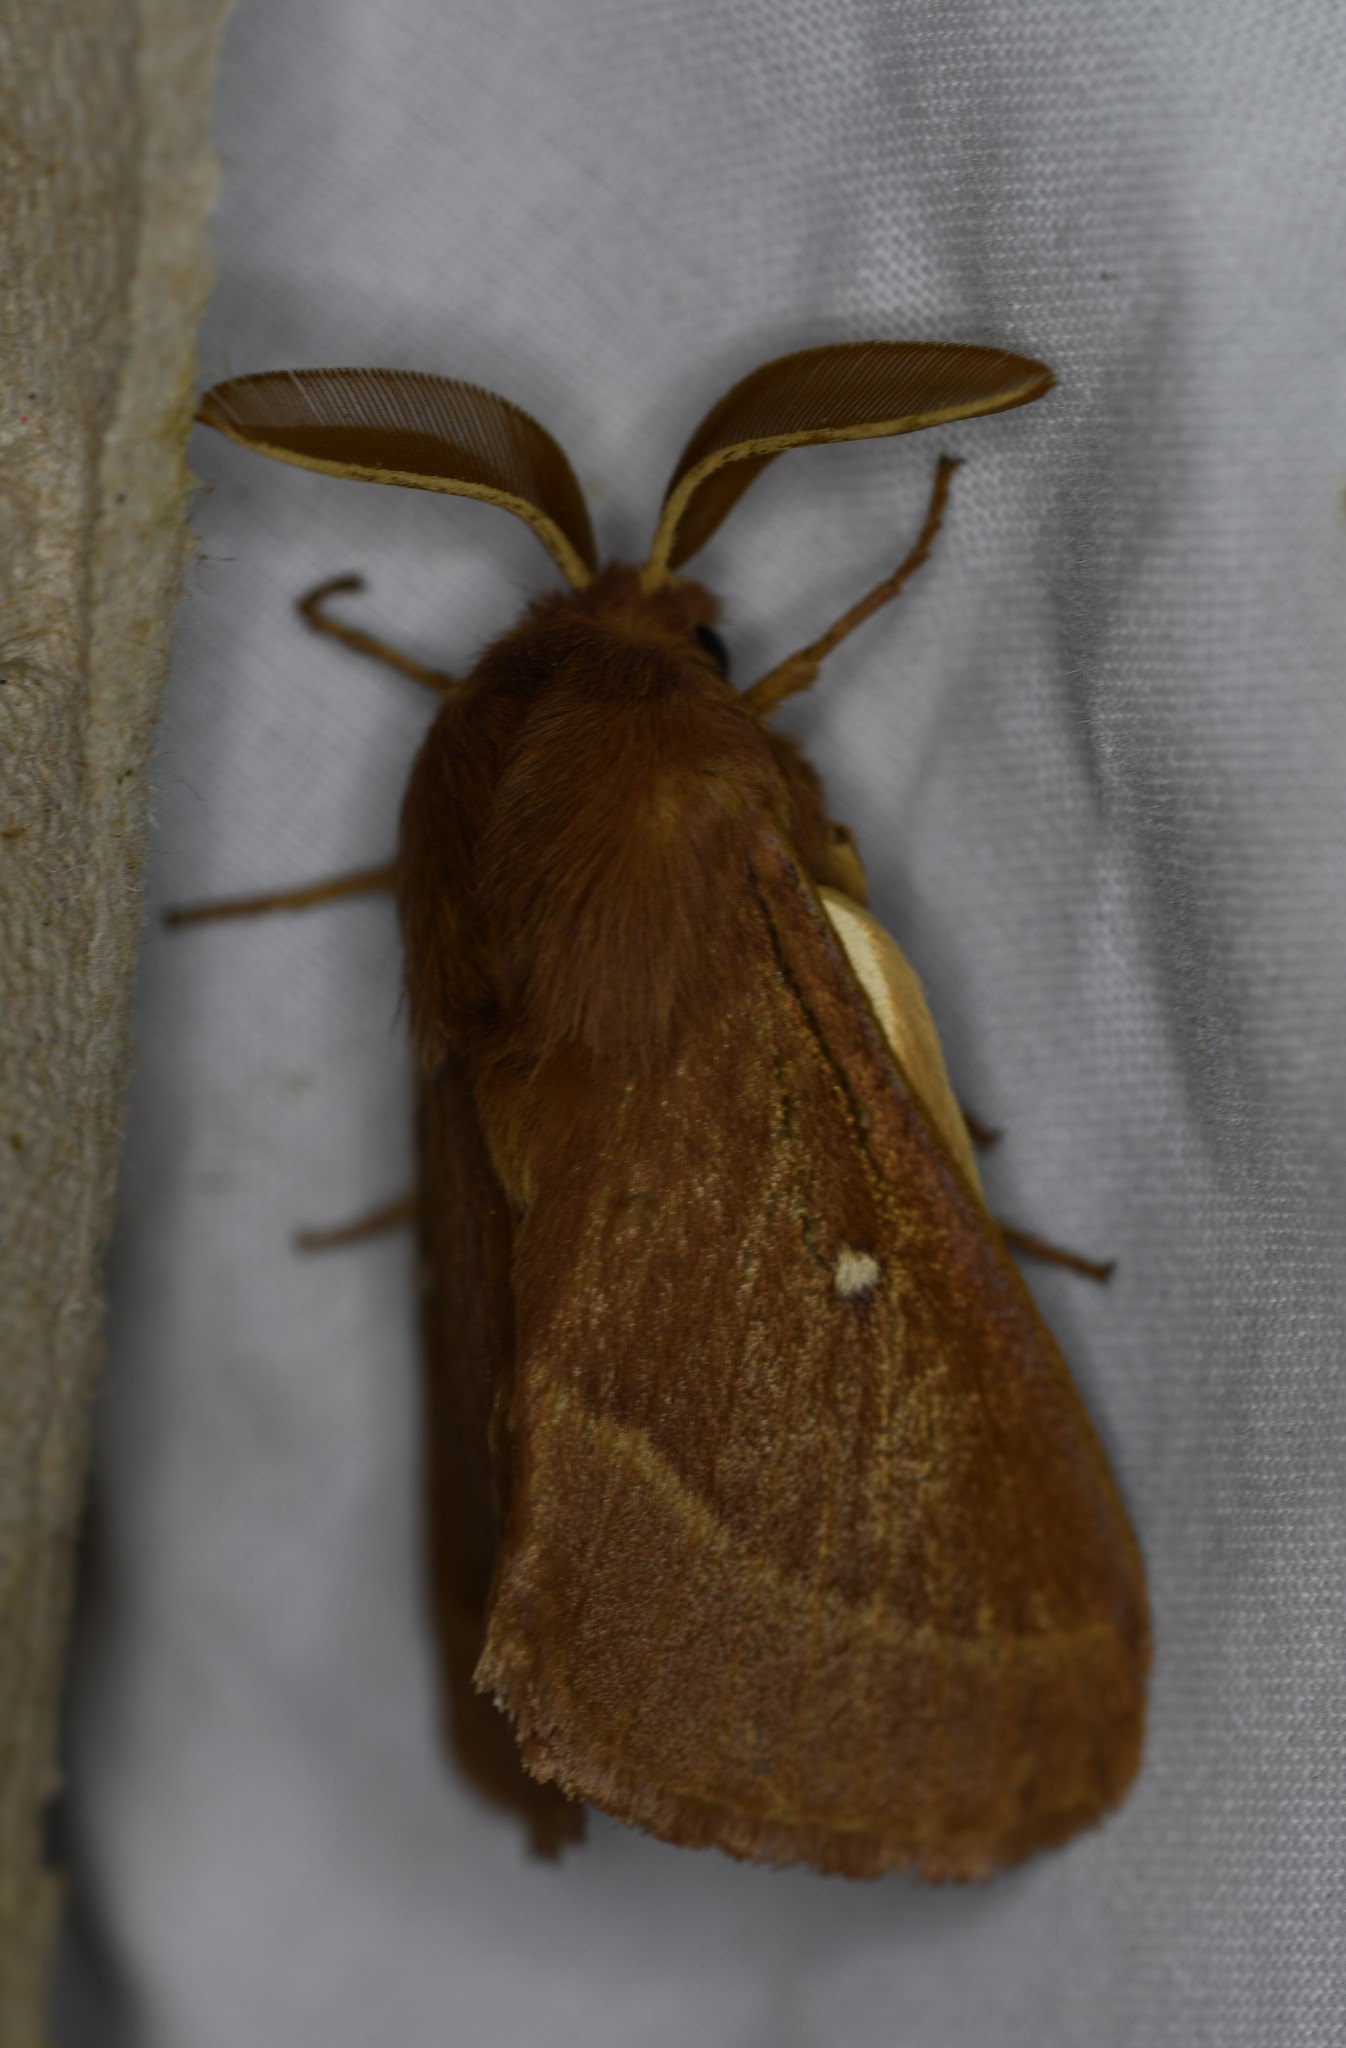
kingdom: Animalia
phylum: Arthropoda
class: Insecta
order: Lepidoptera
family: Lasiocampidae
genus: Lasiocampa
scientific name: Lasiocampa trifolii
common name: Grass eggar
